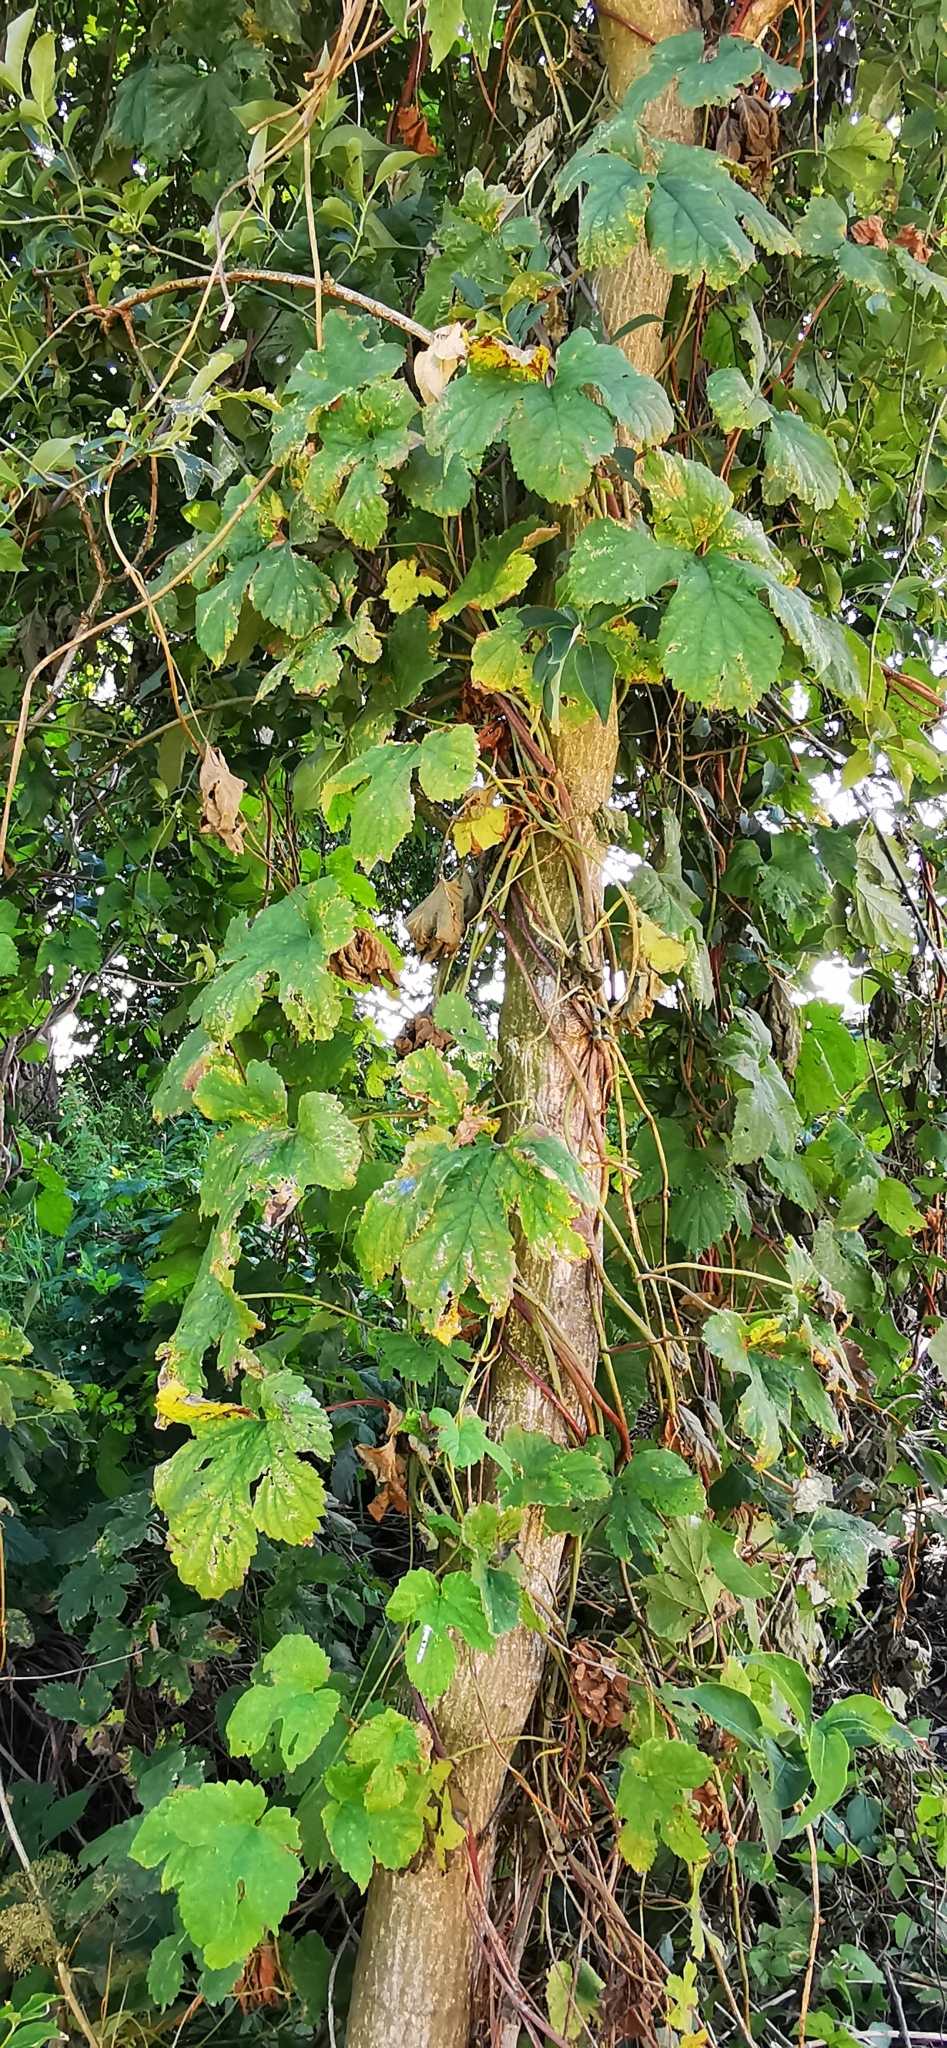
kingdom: Plantae
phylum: Tracheophyta
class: Magnoliopsida
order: Rosales
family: Cannabaceae
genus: Humulus
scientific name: Humulus lupulus
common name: Hop
